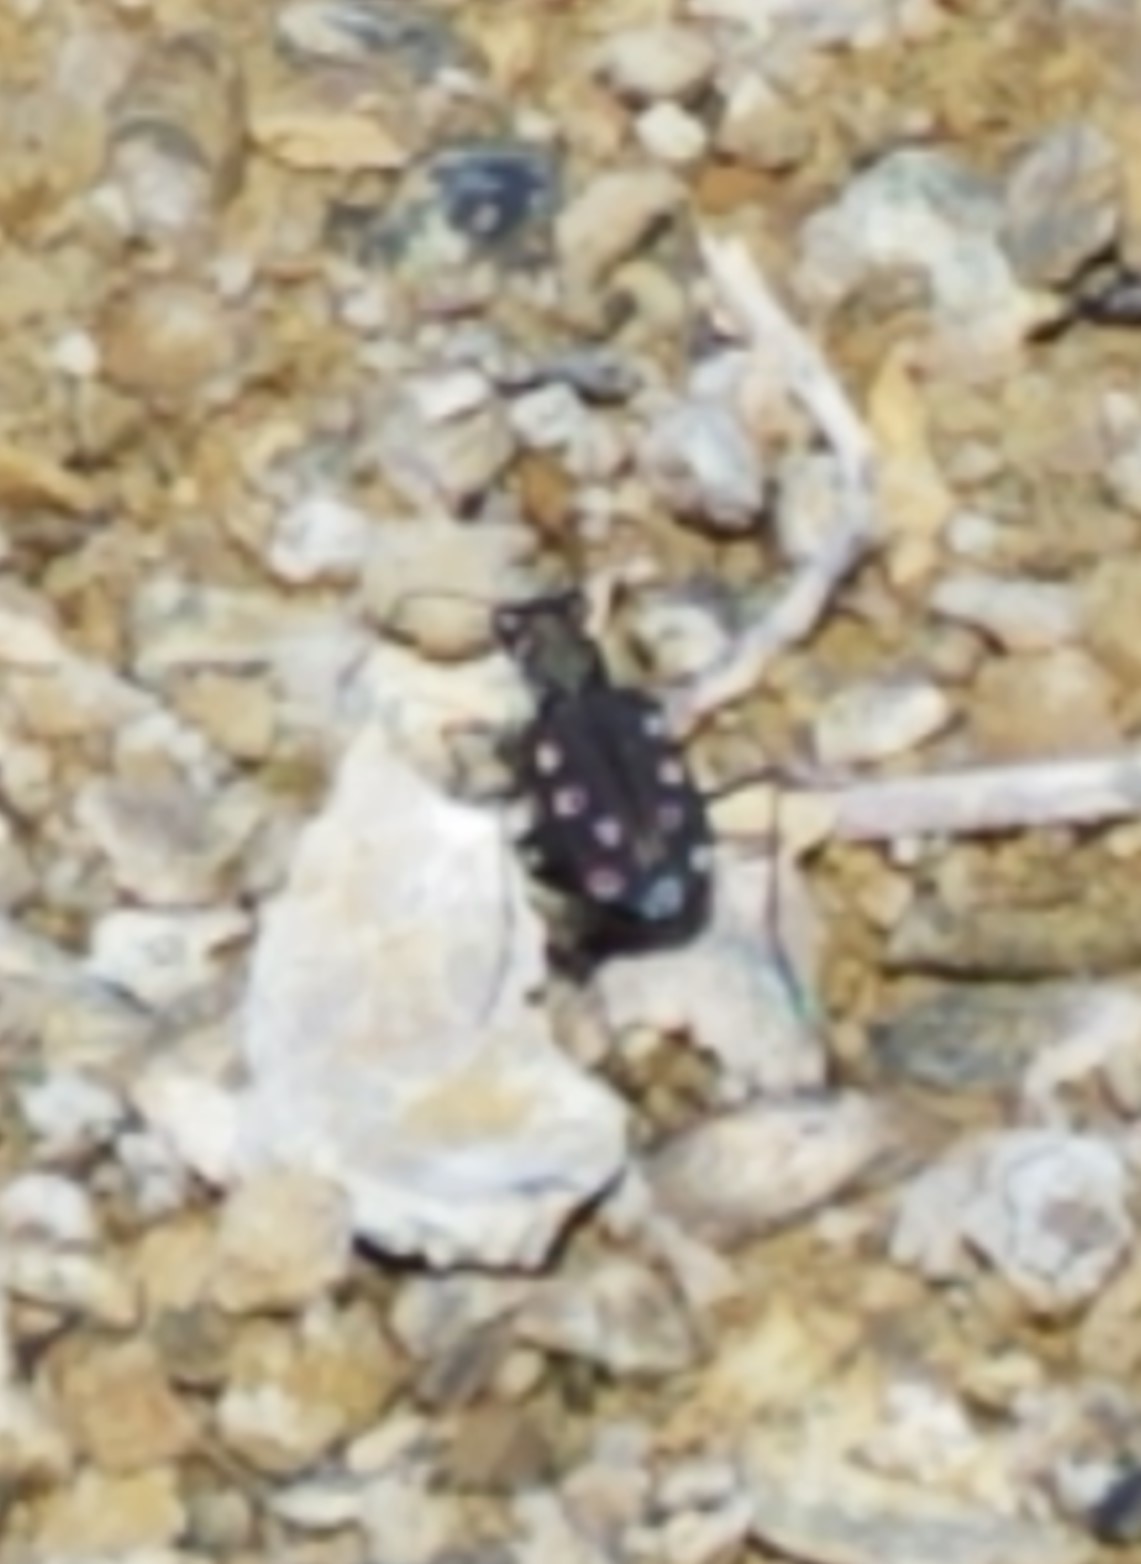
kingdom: Animalia
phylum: Arthropoda
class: Insecta
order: Coleoptera
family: Carabidae
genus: Cicindela
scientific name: Cicindela ocellata
